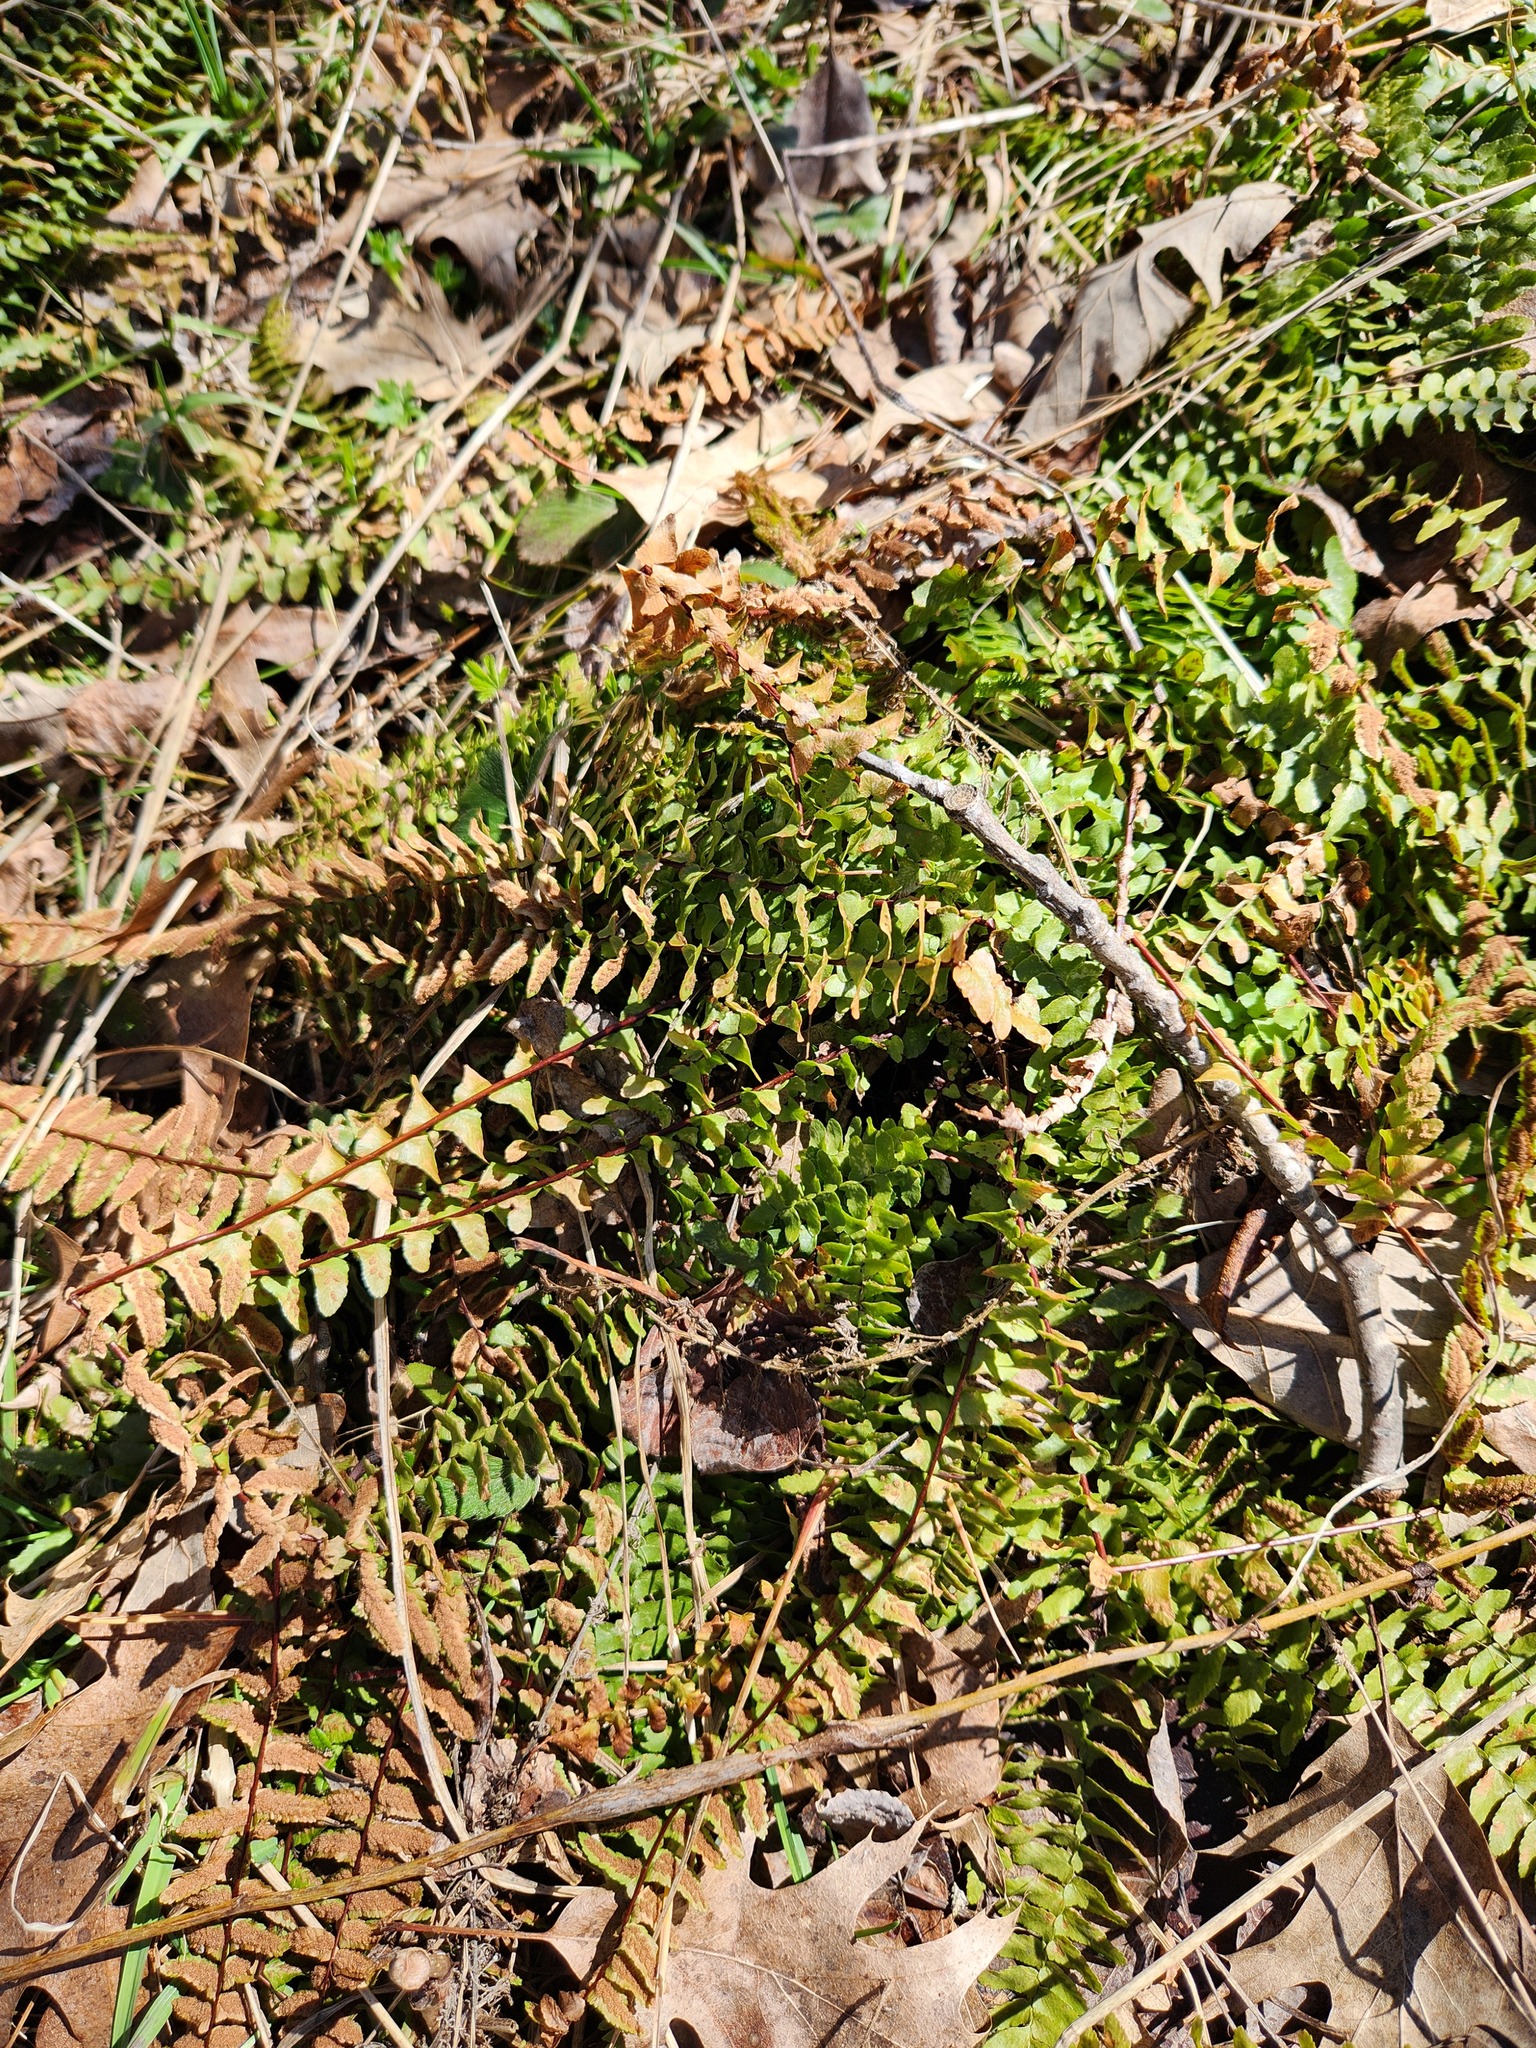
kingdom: Plantae
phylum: Tracheophyta
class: Polypodiopsida
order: Polypodiales
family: Aspleniaceae
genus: Asplenium
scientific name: Asplenium platyneuron
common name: Ebony spleenwort
